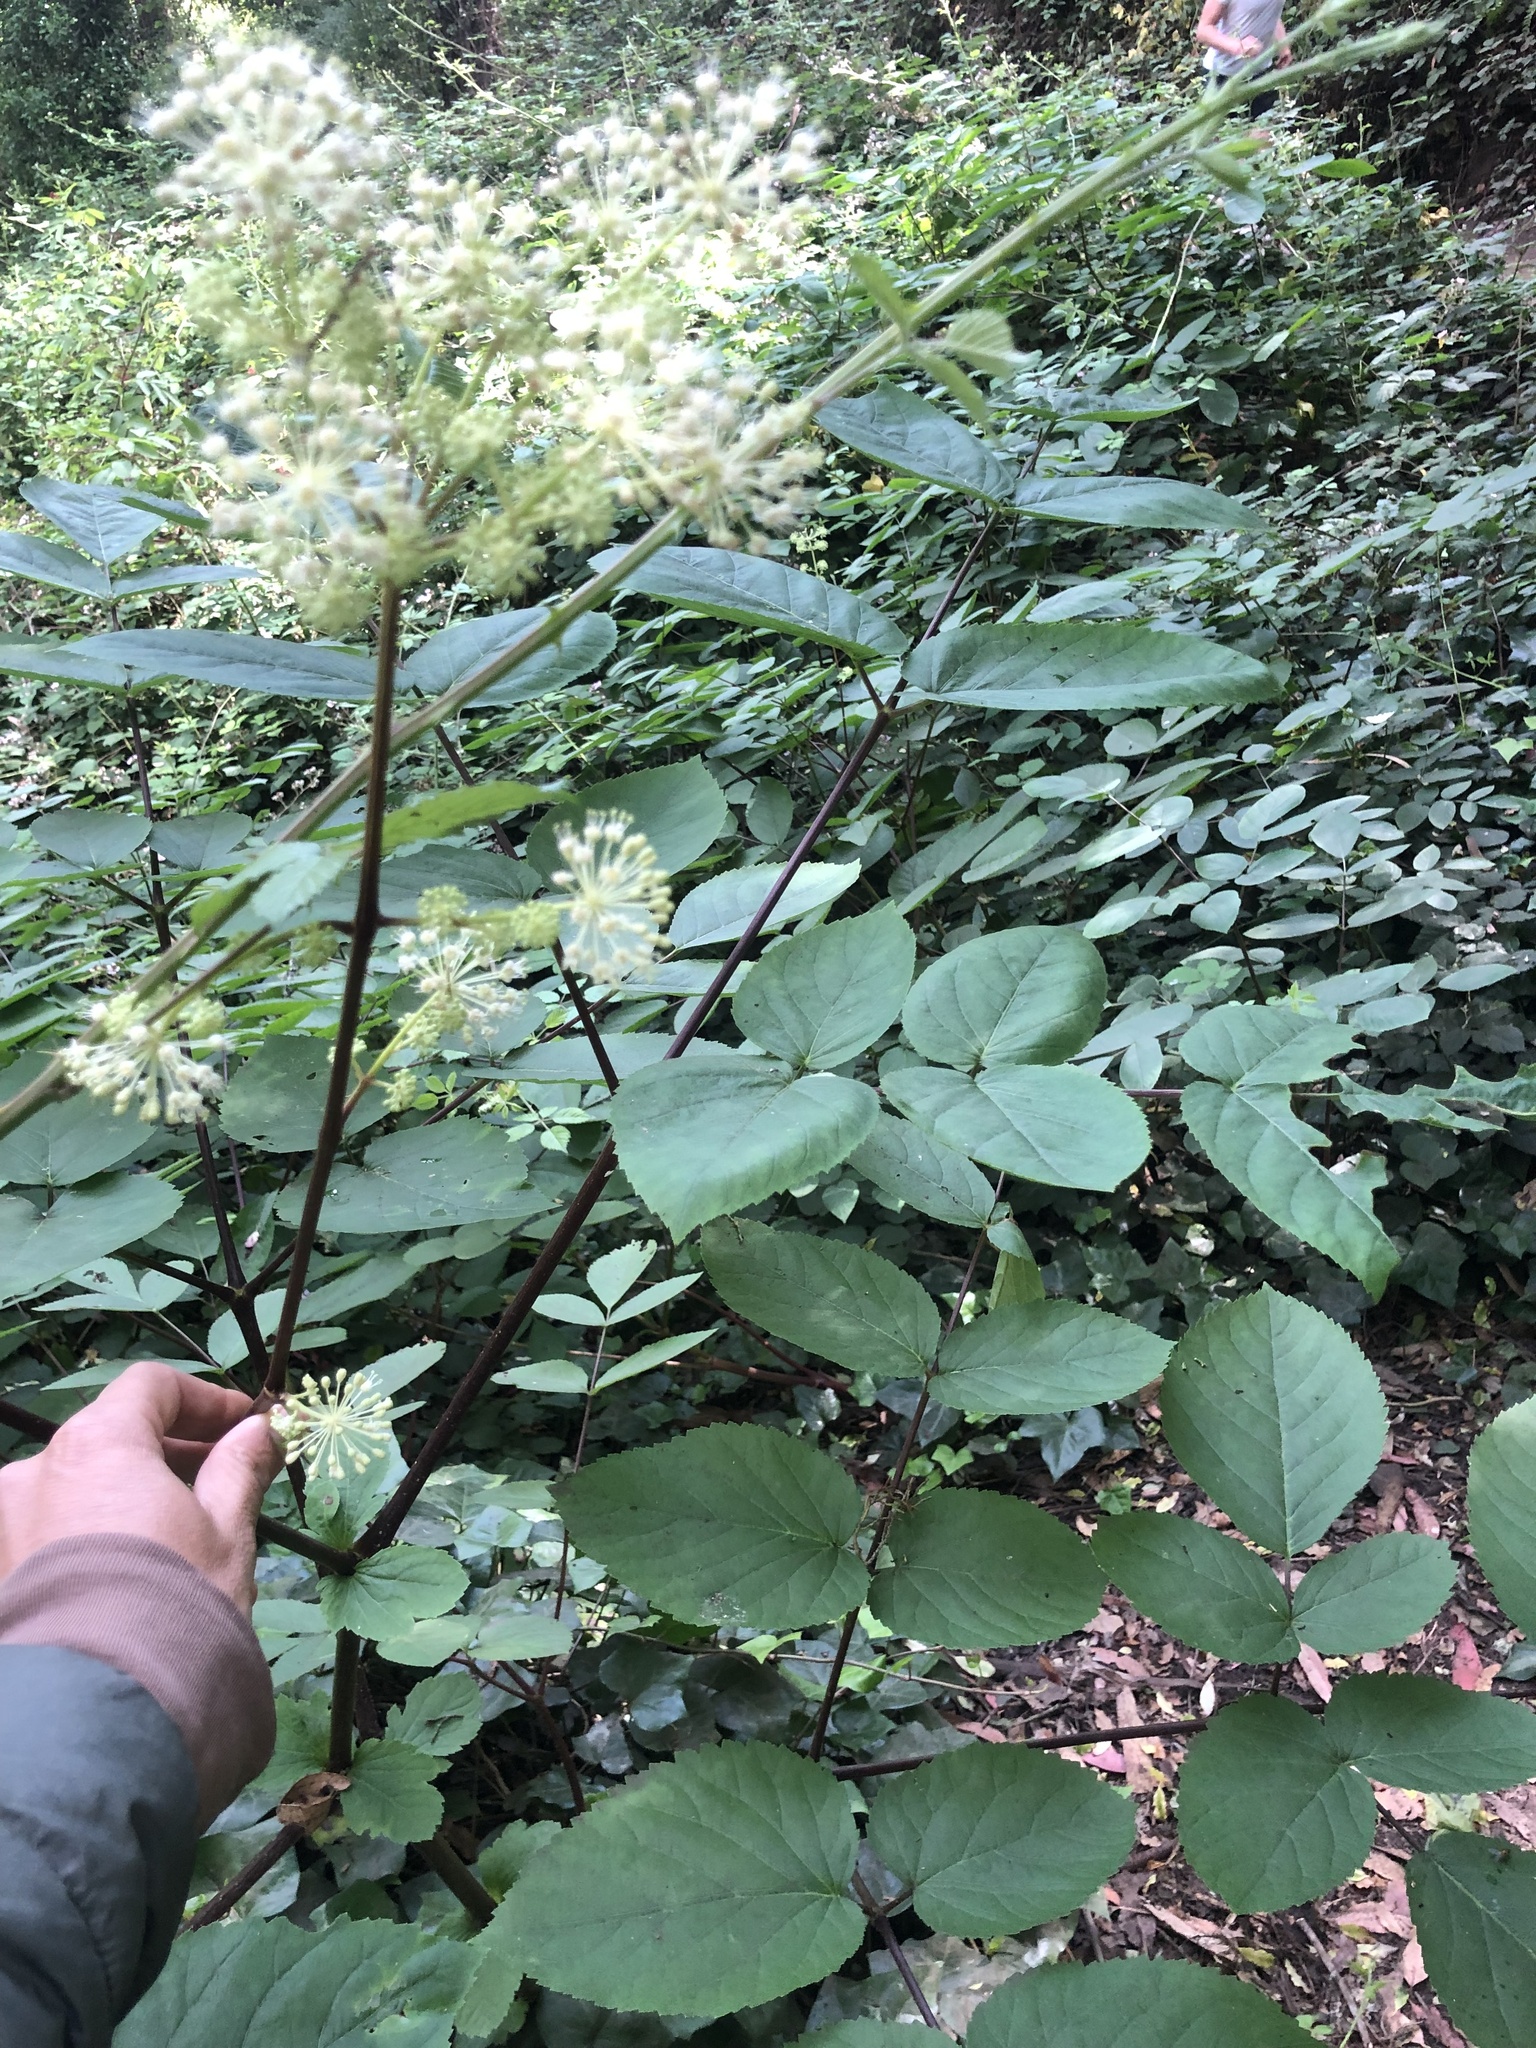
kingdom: Plantae
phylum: Tracheophyta
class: Magnoliopsida
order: Apiales
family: Araliaceae
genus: Aralia
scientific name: Aralia californica
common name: California-ginseng
